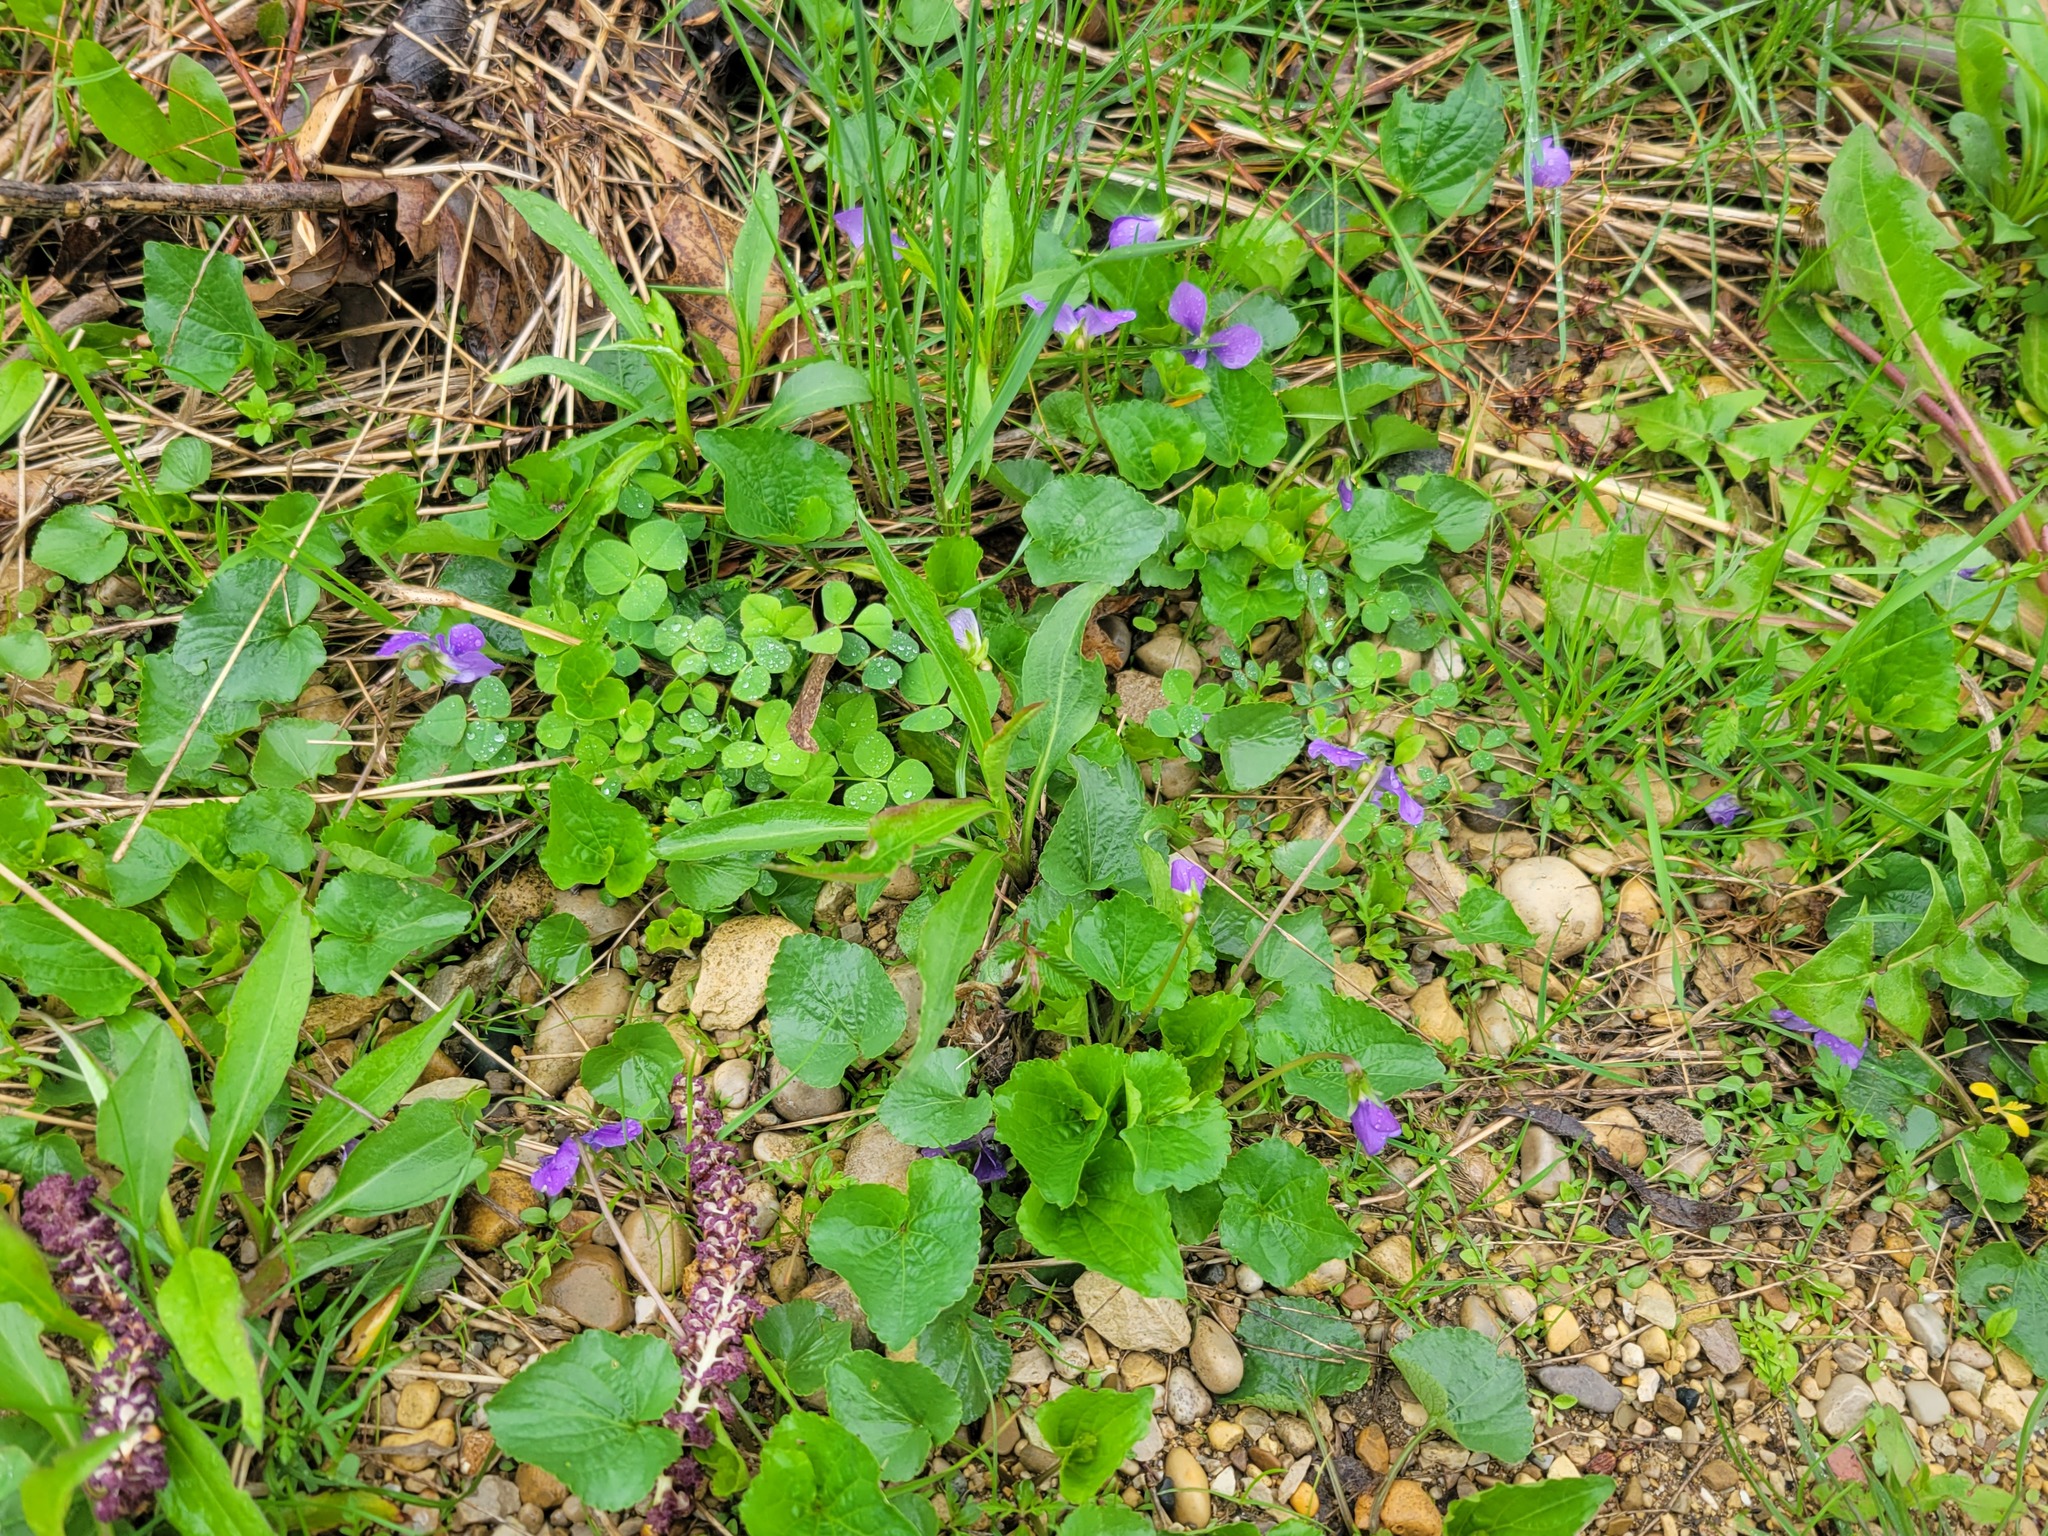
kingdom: Plantae
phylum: Tracheophyta
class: Magnoliopsida
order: Malpighiales
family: Violaceae
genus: Viola
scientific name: Viola sororia
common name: Dooryard violet
